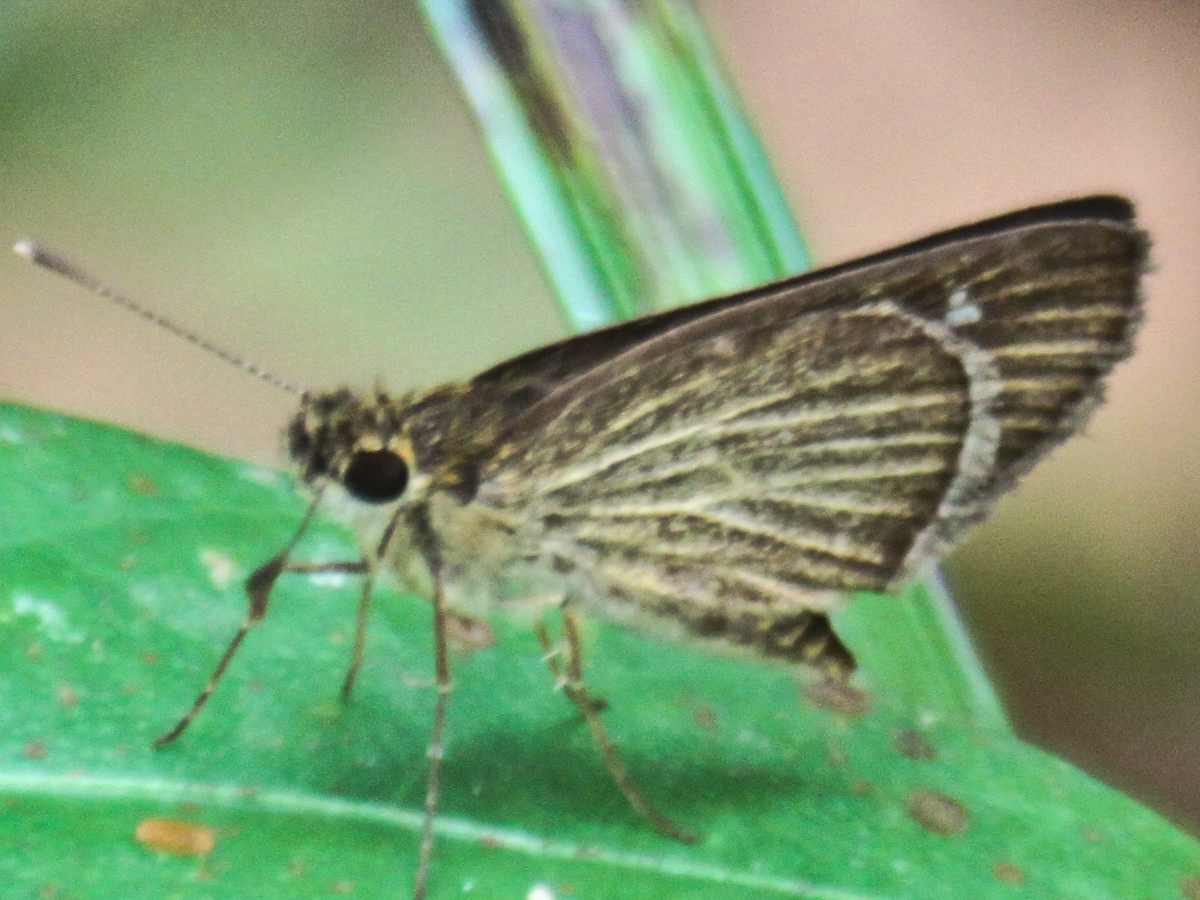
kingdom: Animalia
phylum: Arthropoda
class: Insecta
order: Lepidoptera
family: Hesperiidae
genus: Suada
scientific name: Suada swerga
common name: Grass bob
